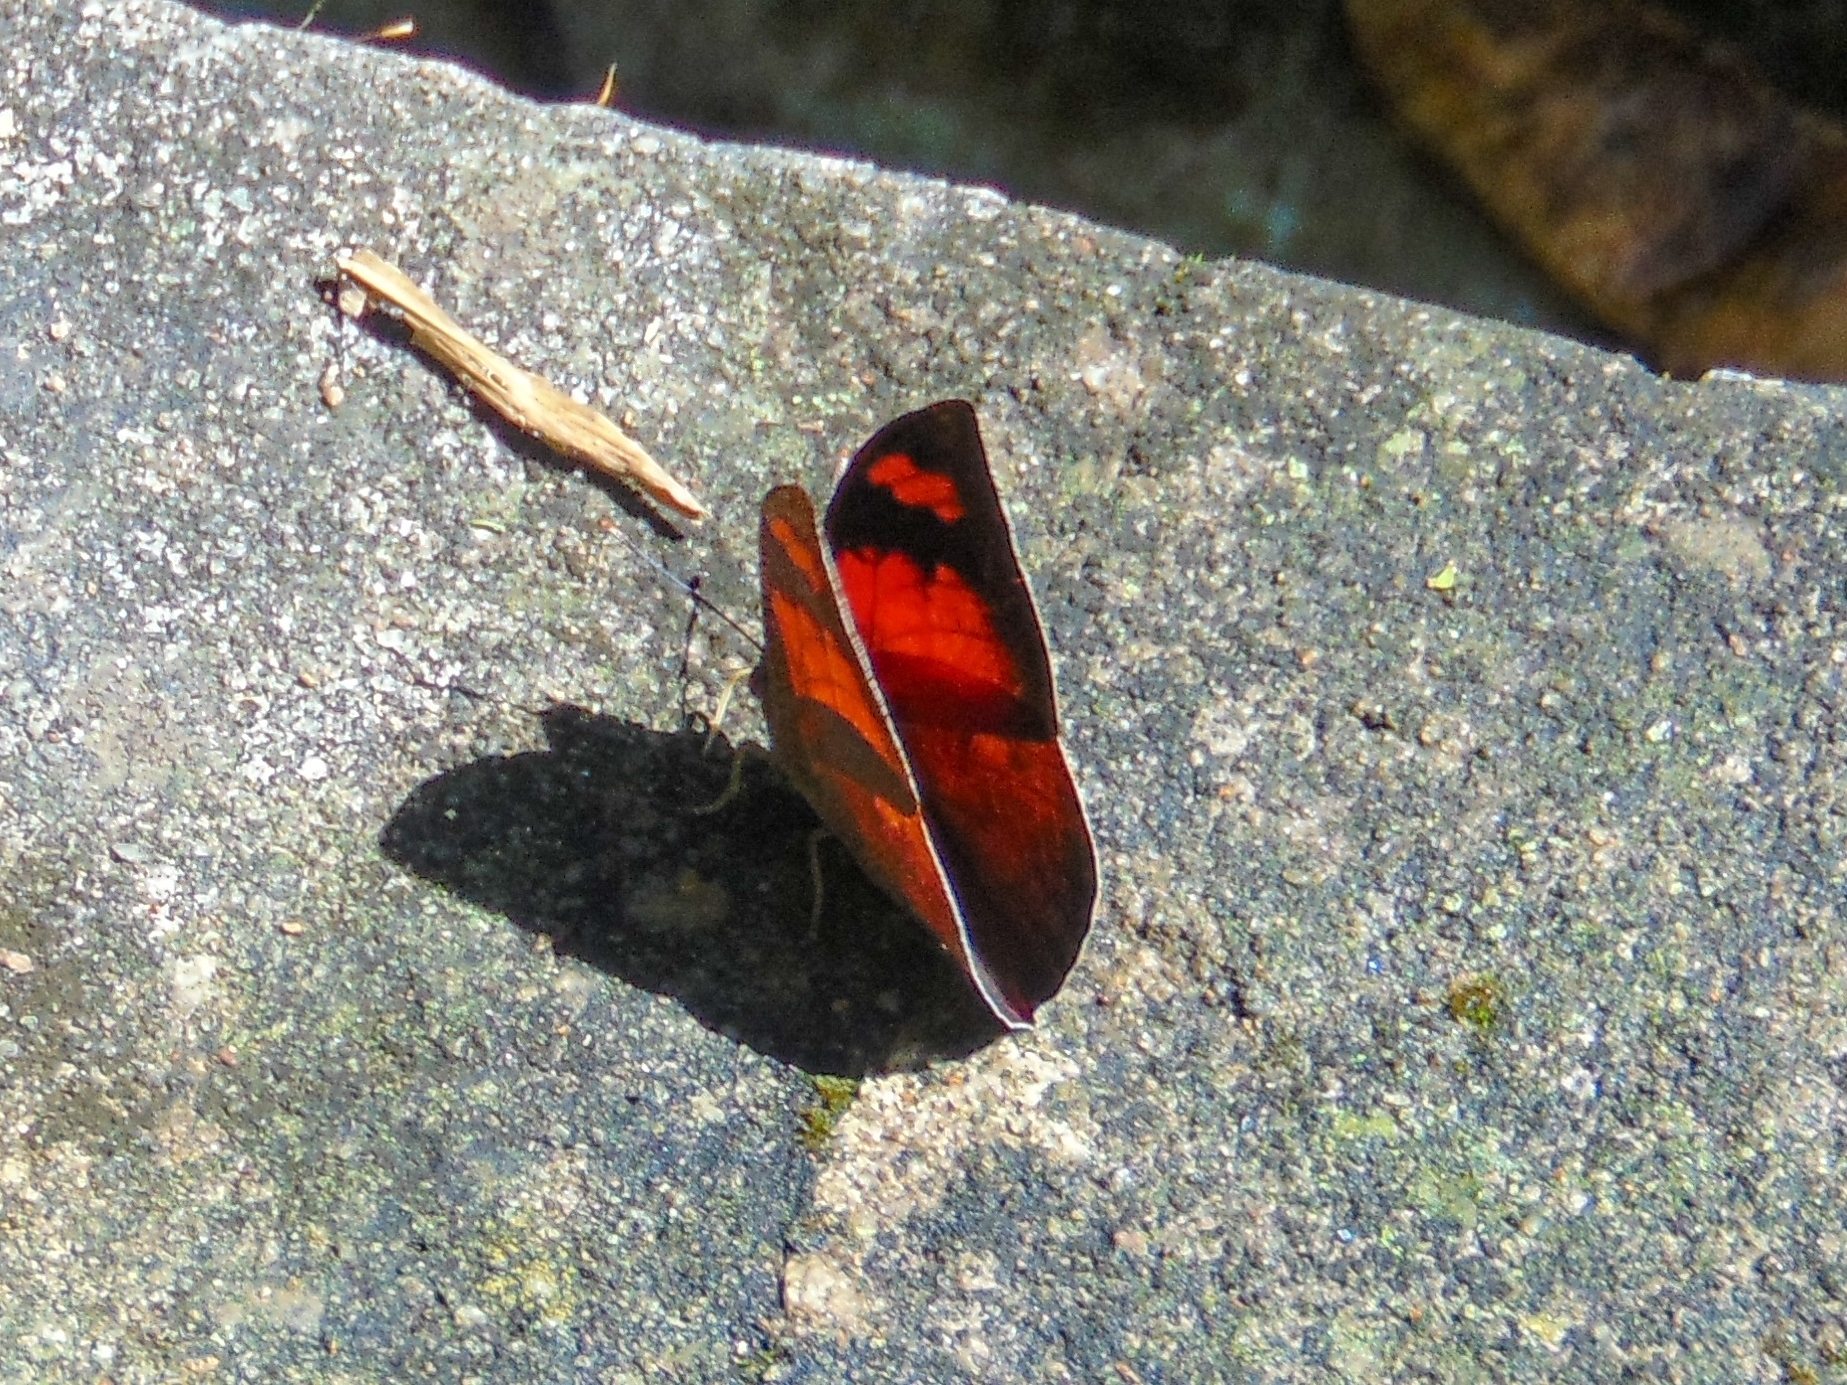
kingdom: Animalia
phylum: Arthropoda
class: Insecta
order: Lepidoptera
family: Nymphalidae
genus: Anaea
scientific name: Anaea ryphea
